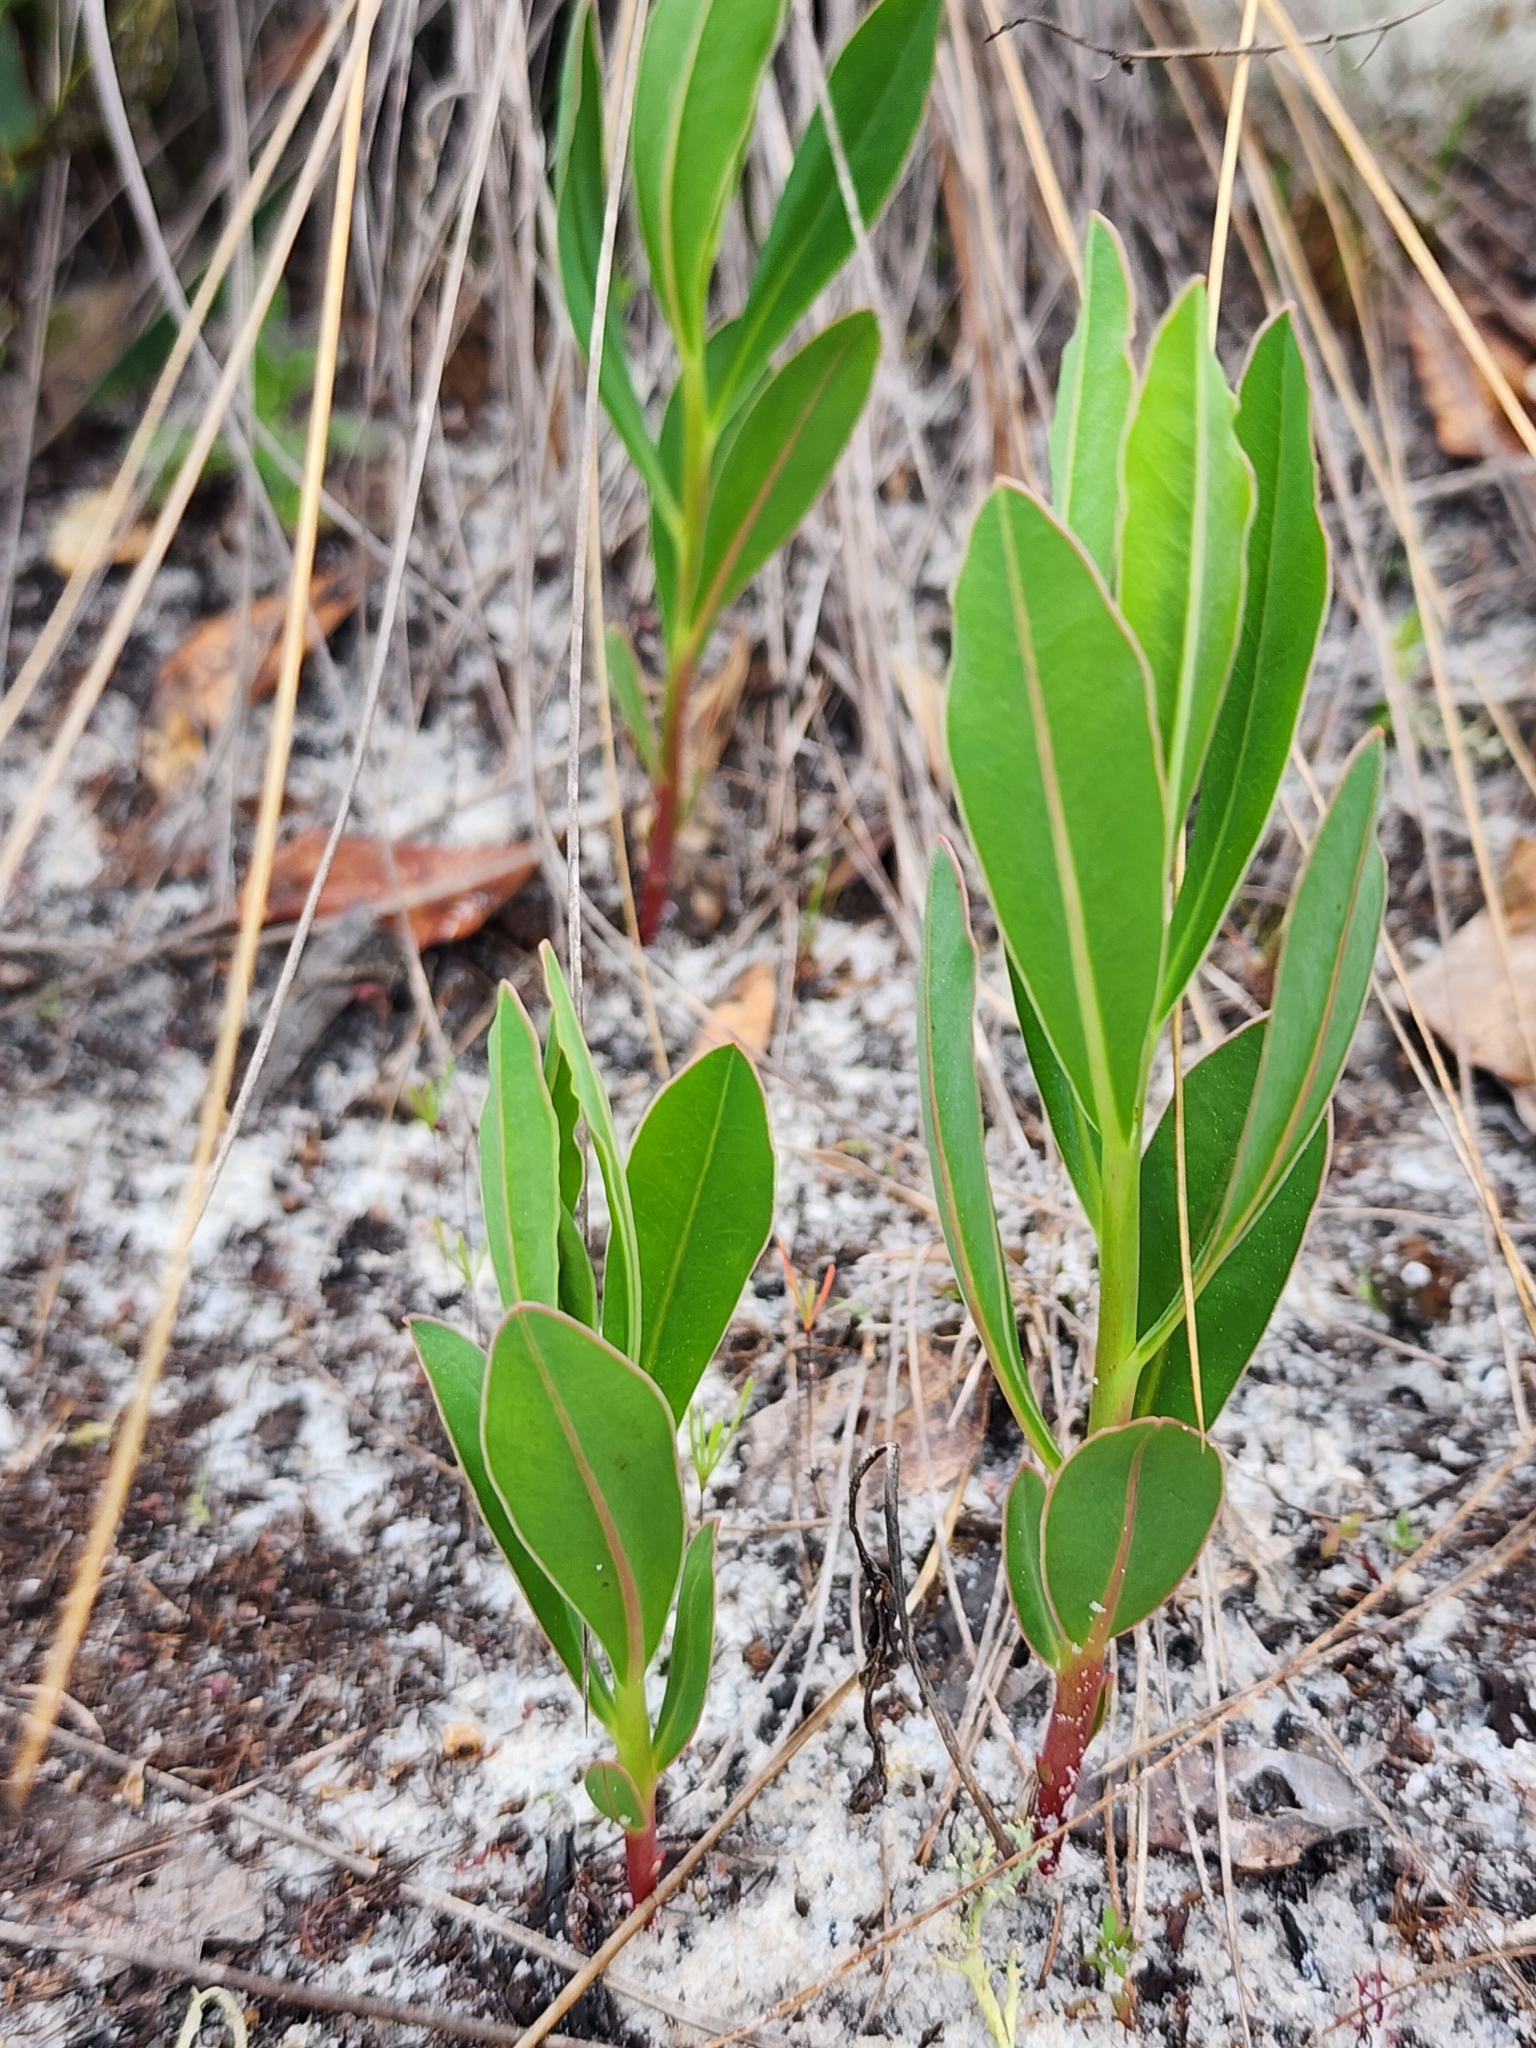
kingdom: Plantae
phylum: Tracheophyta
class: Magnoliopsida
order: Malpighiales
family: Euphorbiaceae
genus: Euphorbia
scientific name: Euphorbia telephioides
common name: Telephus spurge
